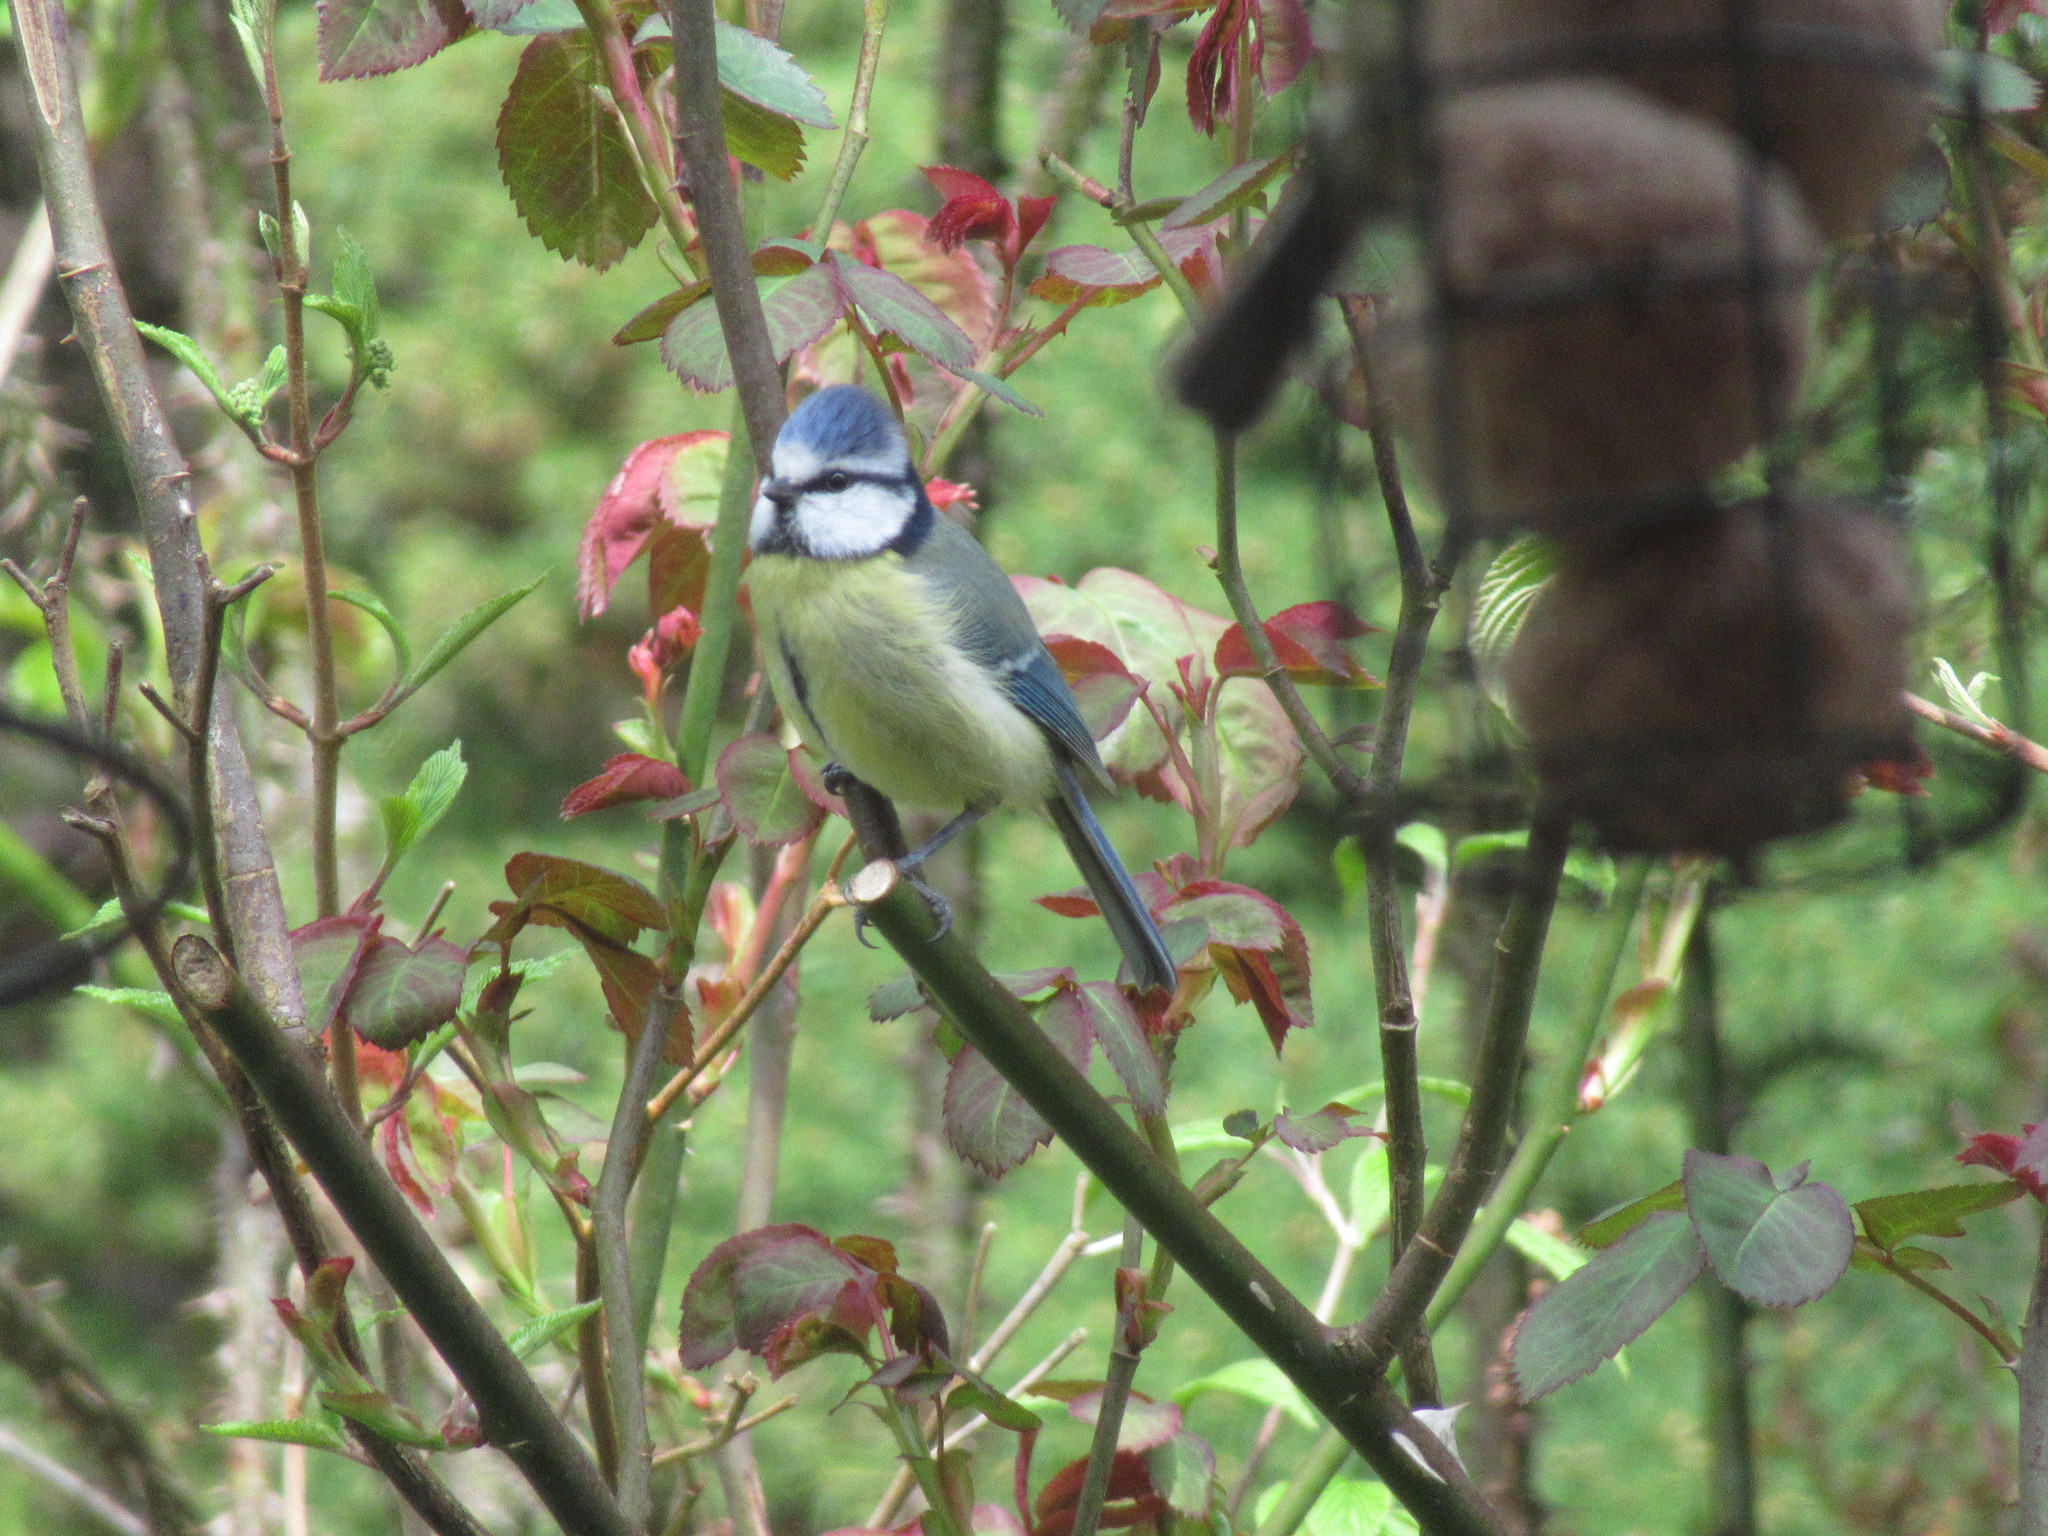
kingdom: Animalia
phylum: Chordata
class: Aves
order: Passeriformes
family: Paridae
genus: Cyanistes
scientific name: Cyanistes caeruleus
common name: Eurasian blue tit
